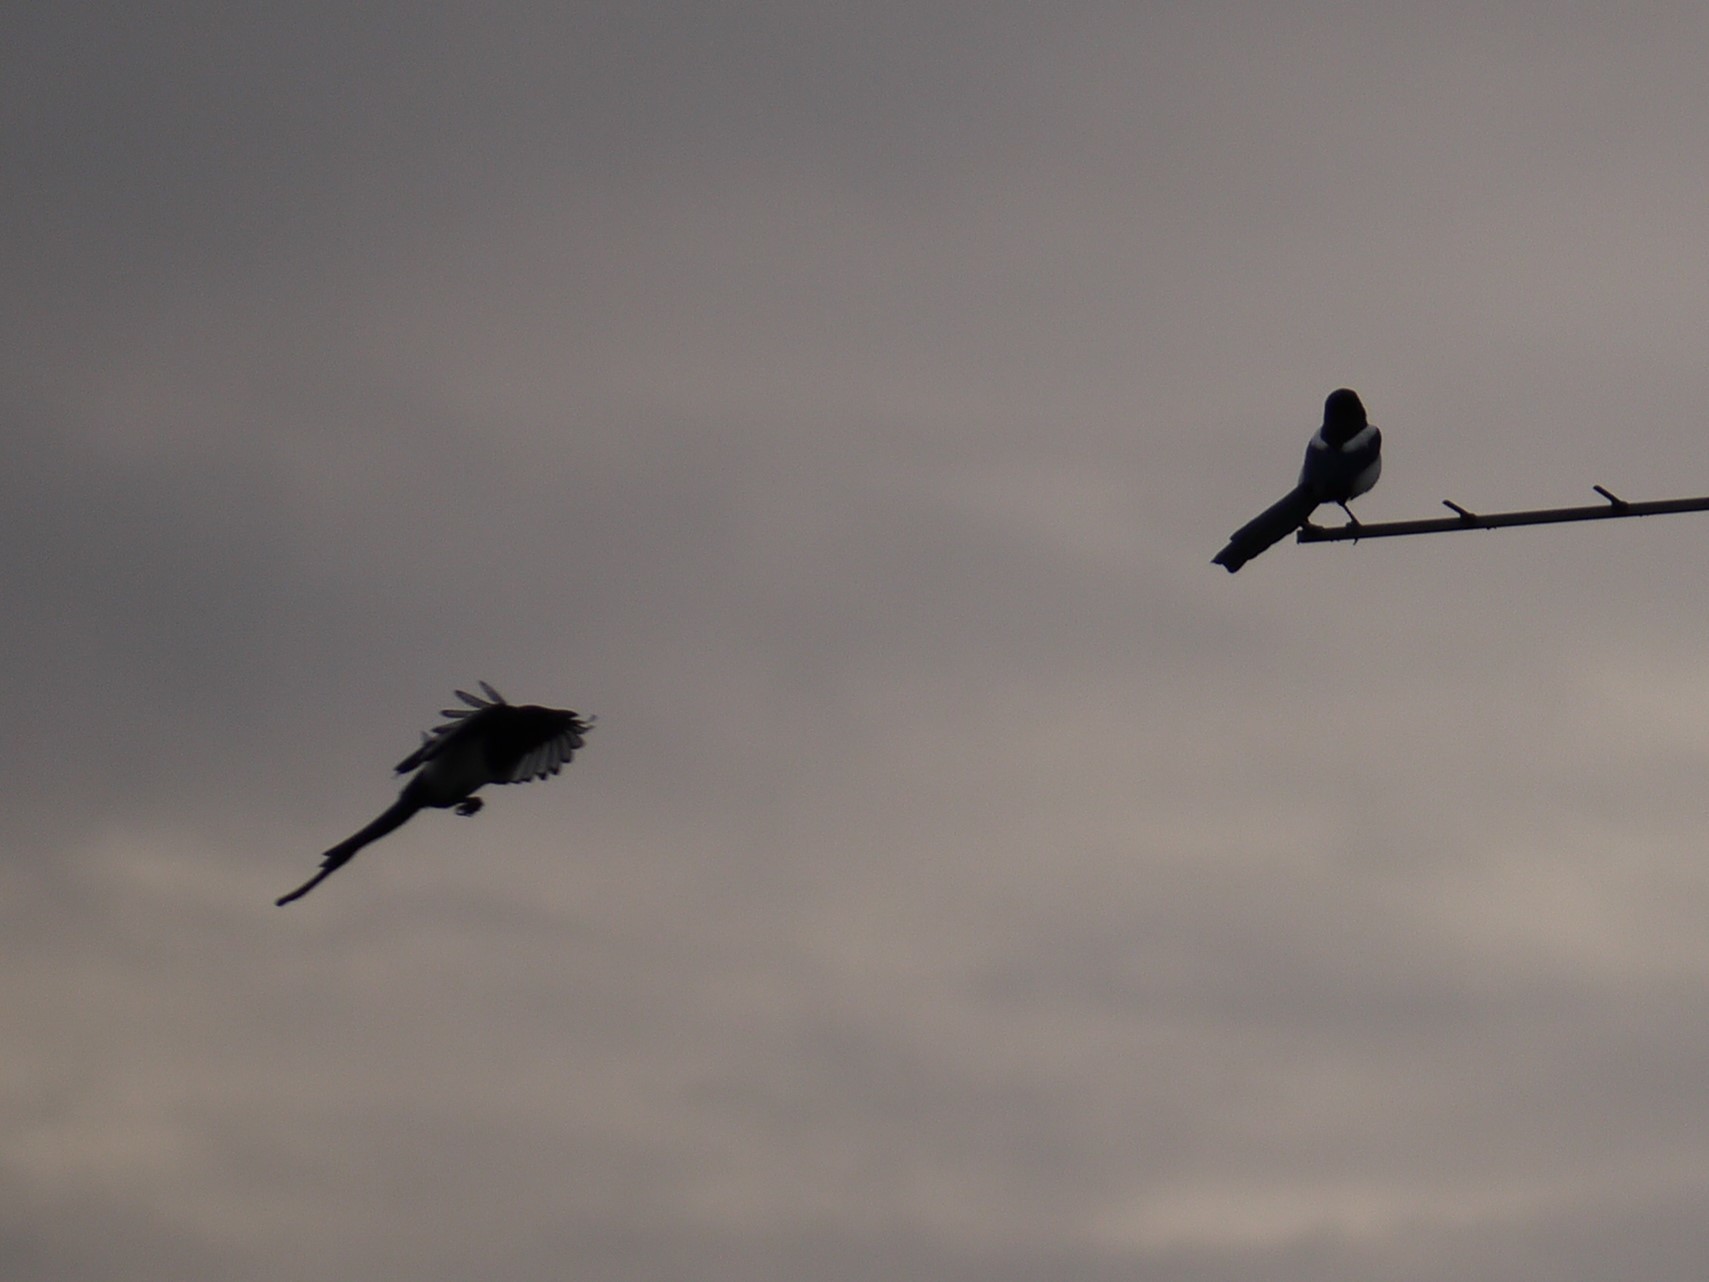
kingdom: Animalia
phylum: Chordata
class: Aves
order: Passeriformes
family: Corvidae
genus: Pica
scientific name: Pica pica
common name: Eurasian magpie
